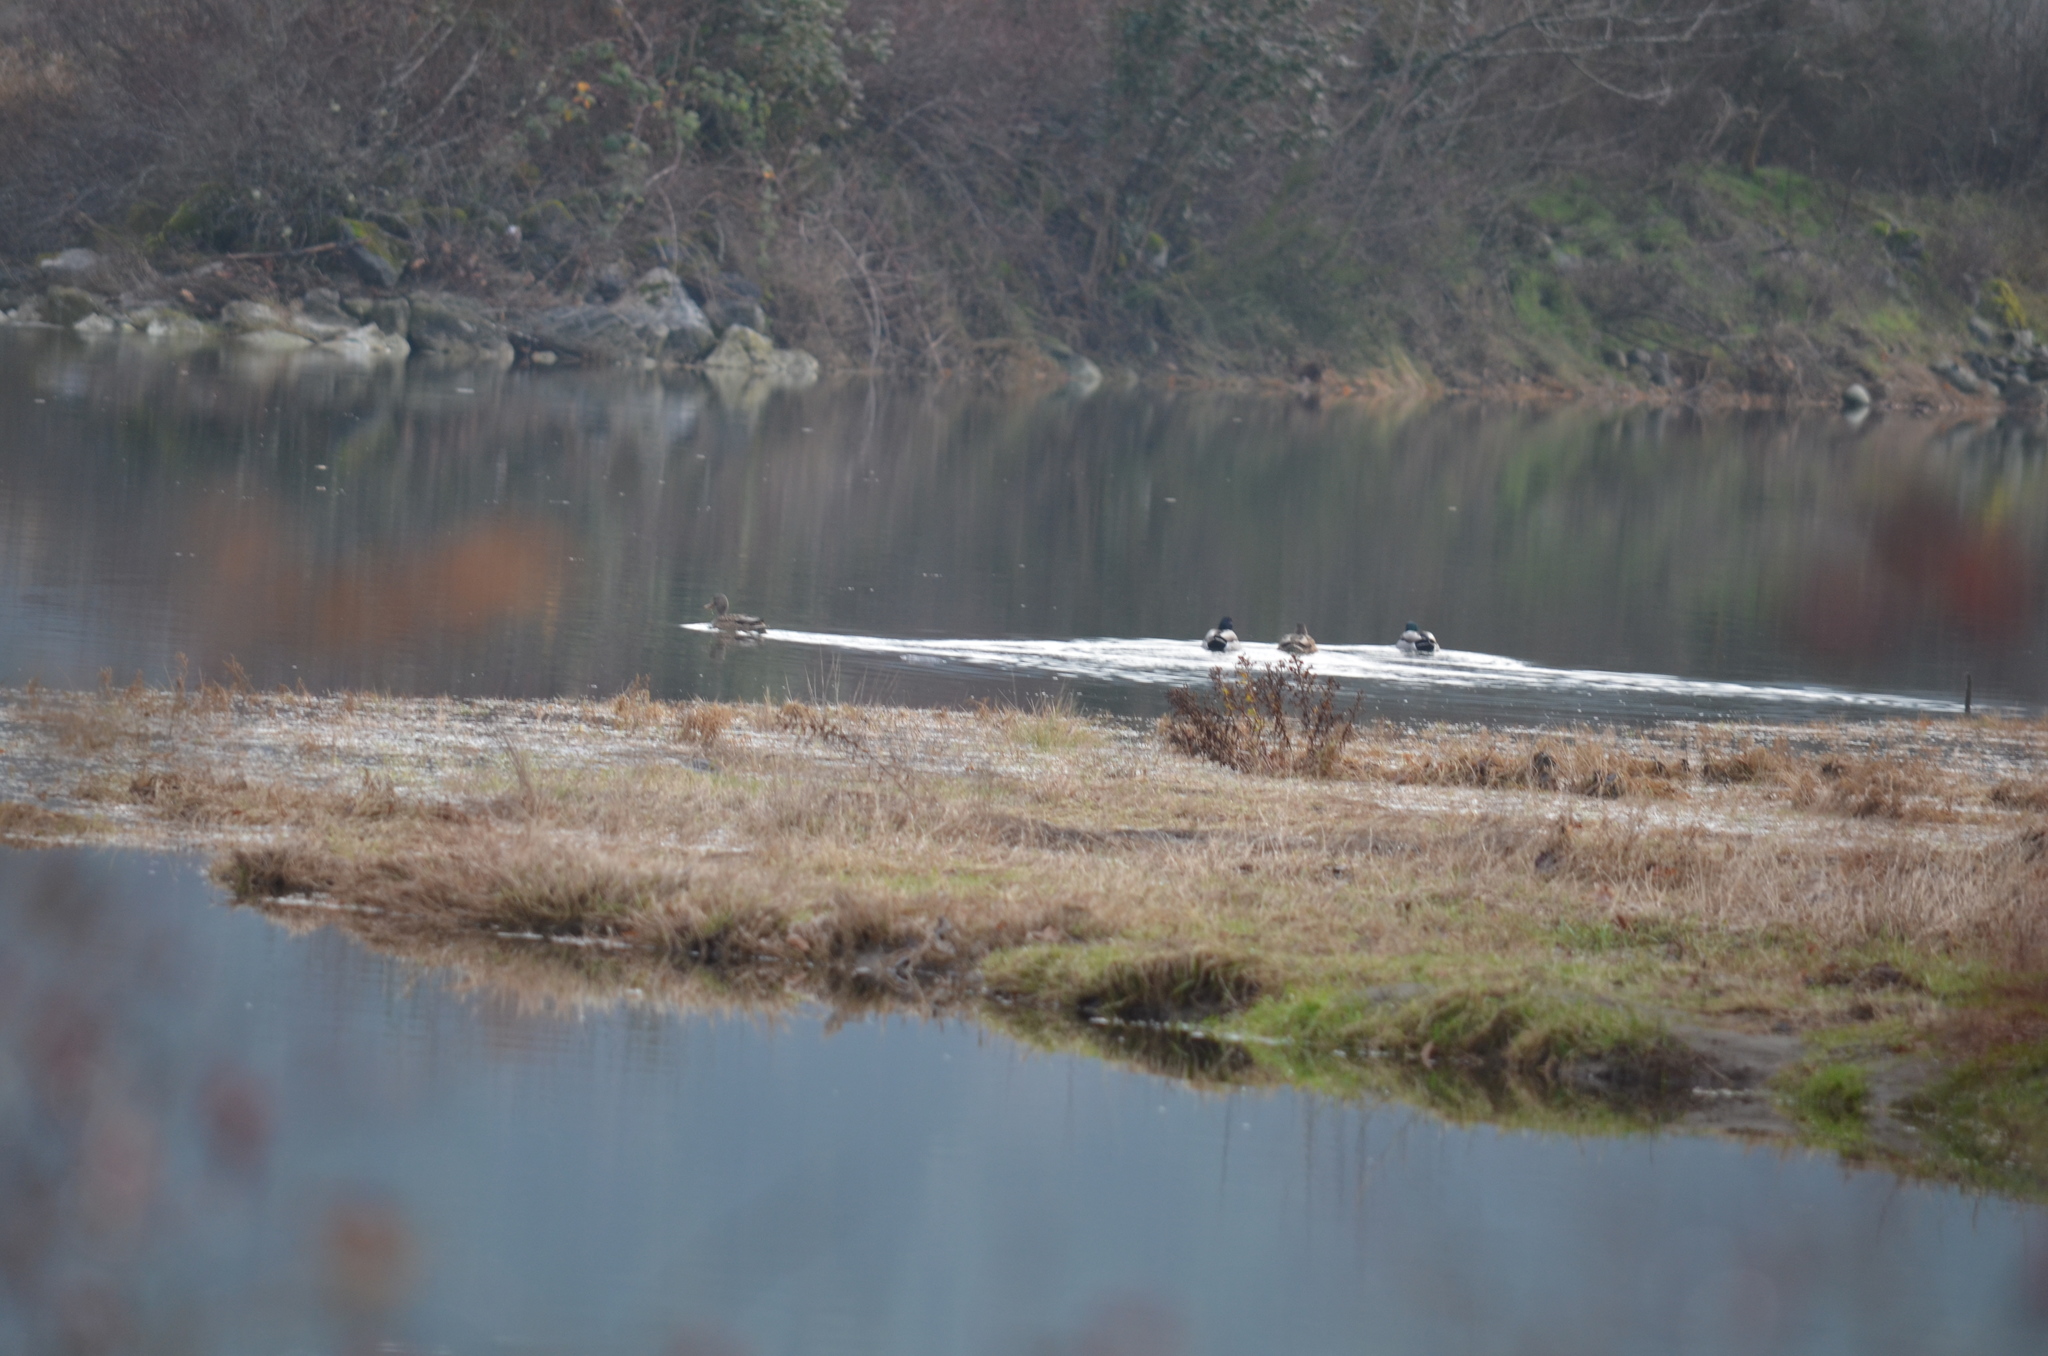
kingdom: Animalia
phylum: Chordata
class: Aves
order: Anseriformes
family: Anatidae
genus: Anas
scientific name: Anas platyrhynchos
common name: Mallard
